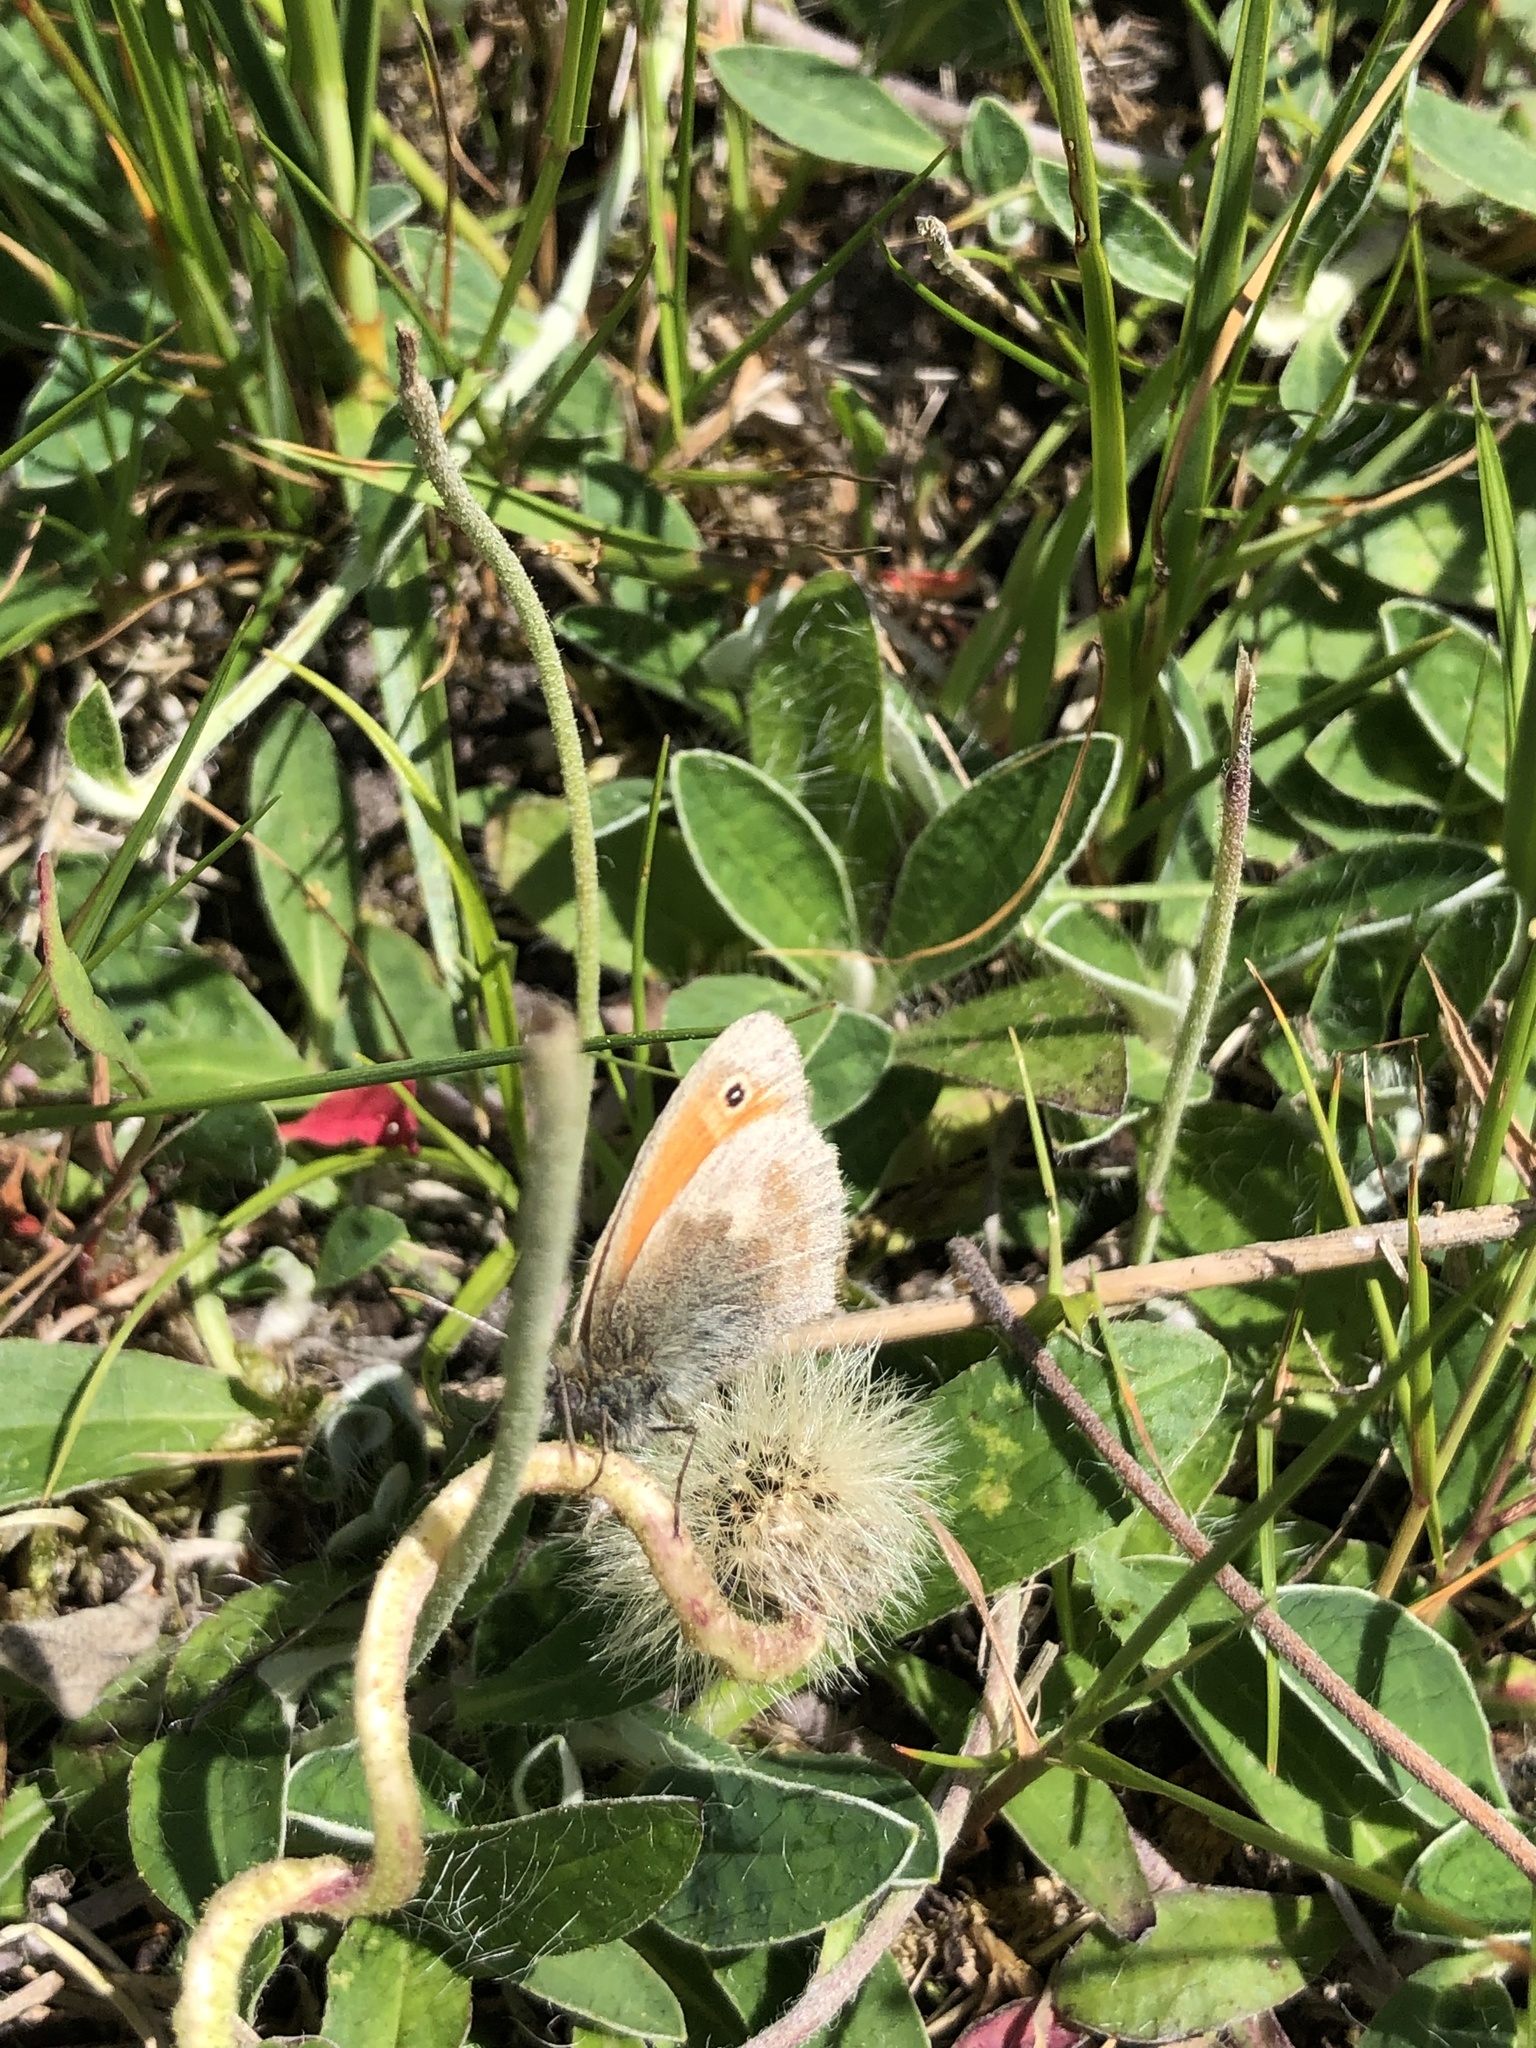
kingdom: Animalia
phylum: Arthropoda
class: Insecta
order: Lepidoptera
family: Nymphalidae
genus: Coenonympha
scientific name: Coenonympha pamphilus
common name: Small heath
